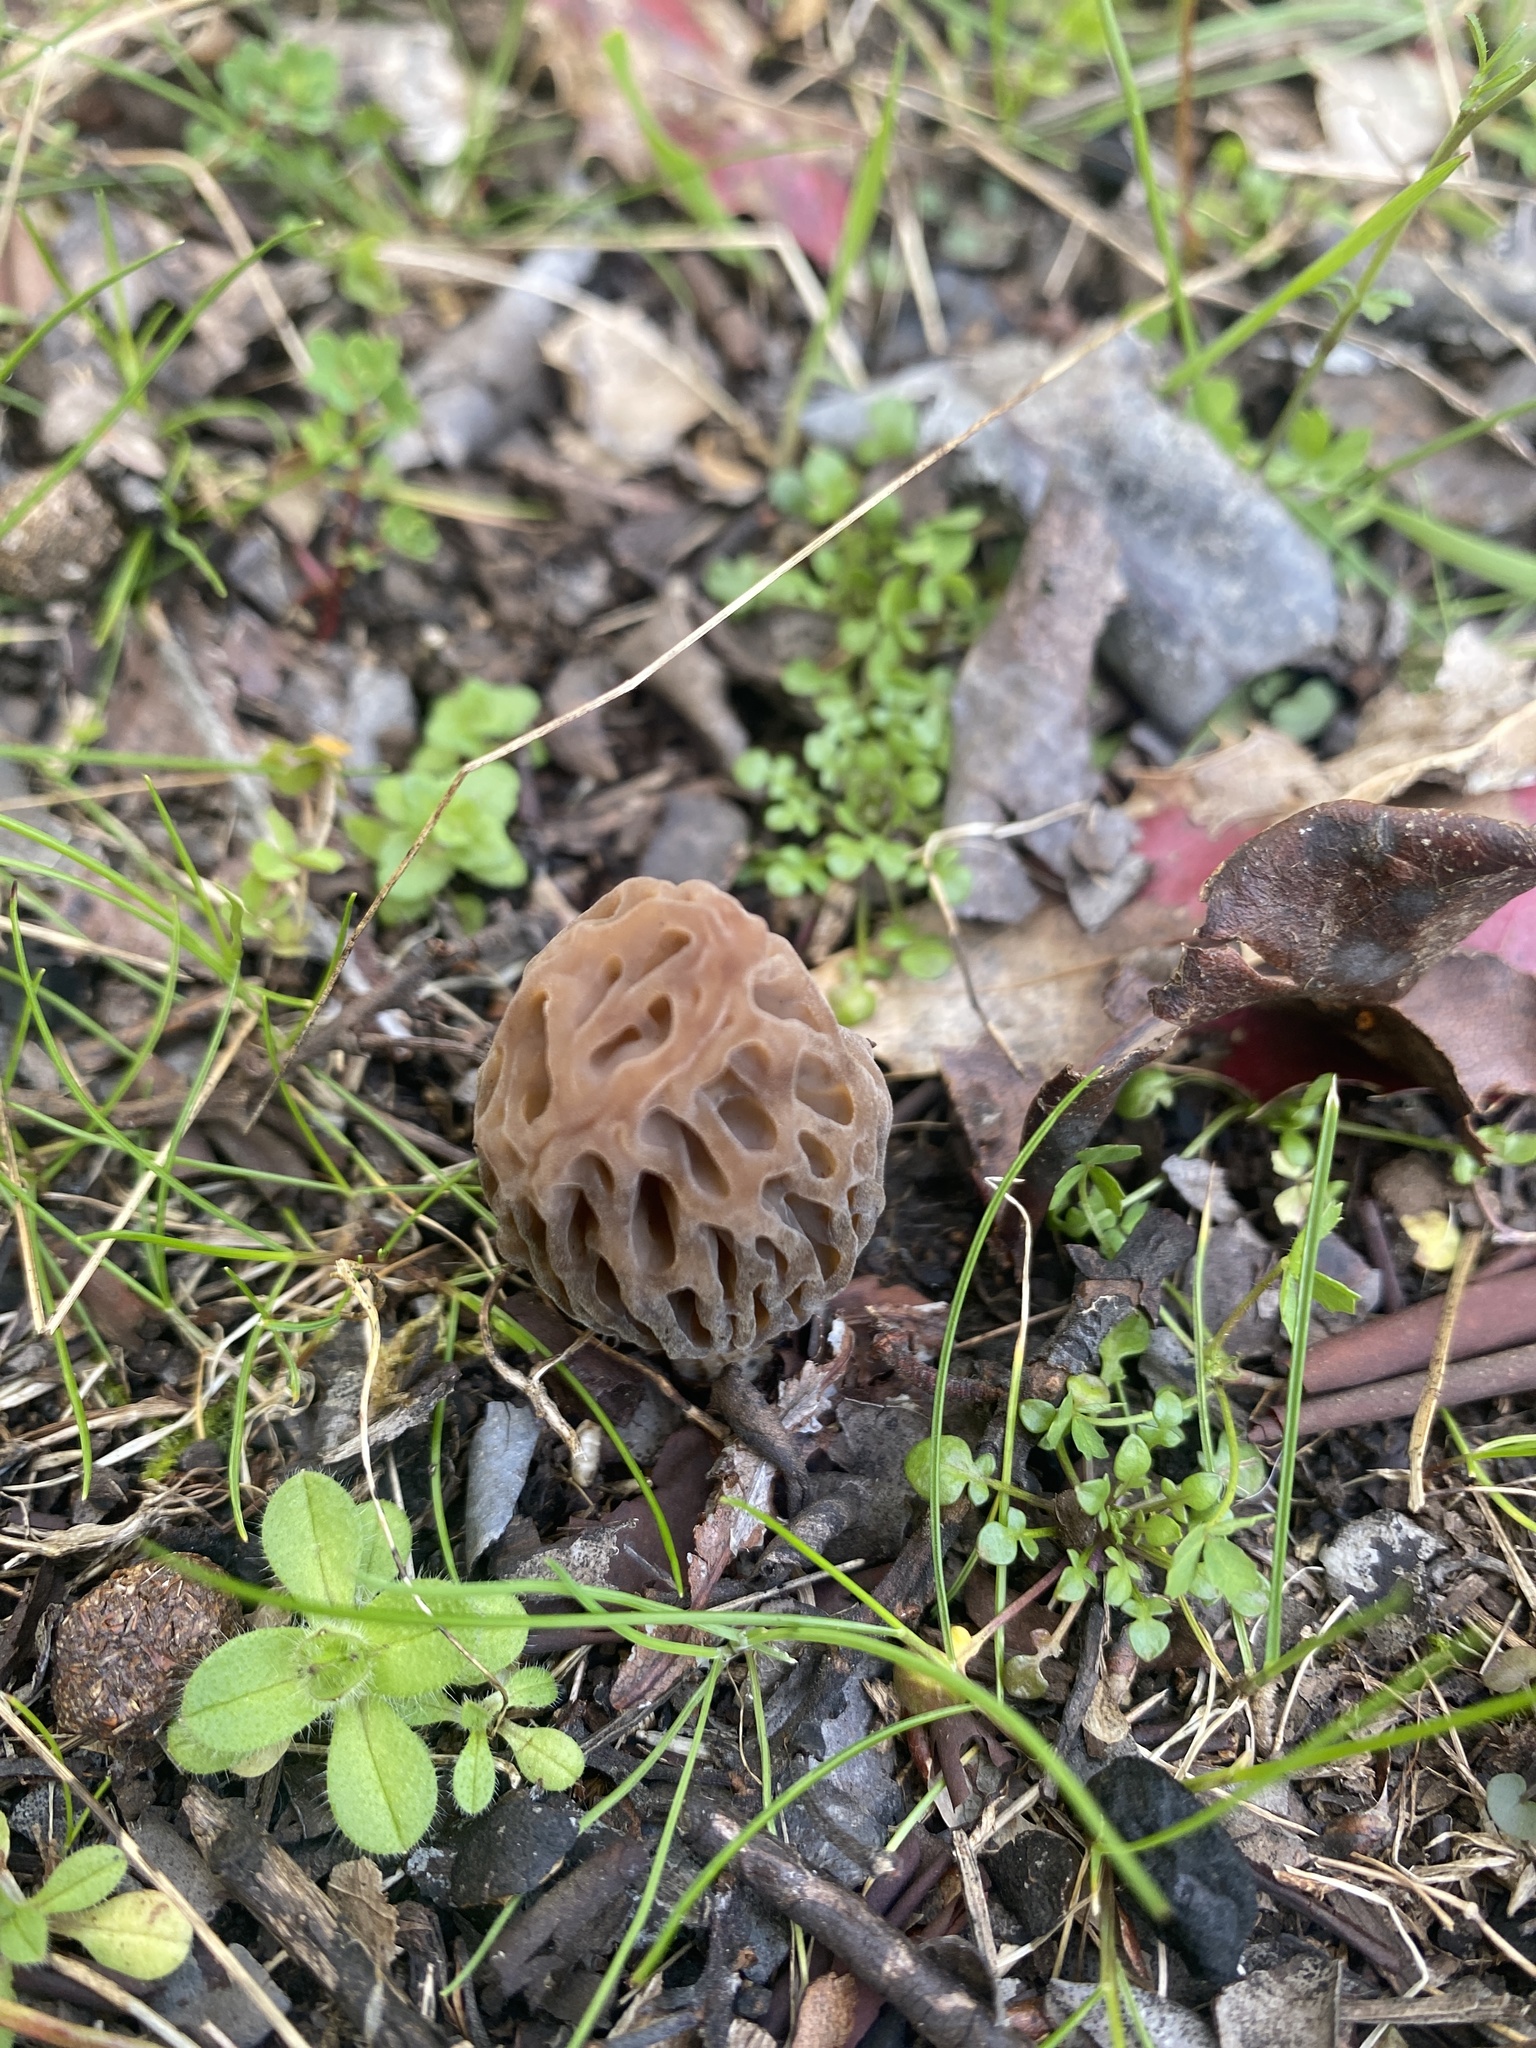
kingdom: Fungi
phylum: Ascomycota
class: Pezizomycetes
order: Pezizales
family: Morchellaceae
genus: Morchella
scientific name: Morchella norvegiensis
